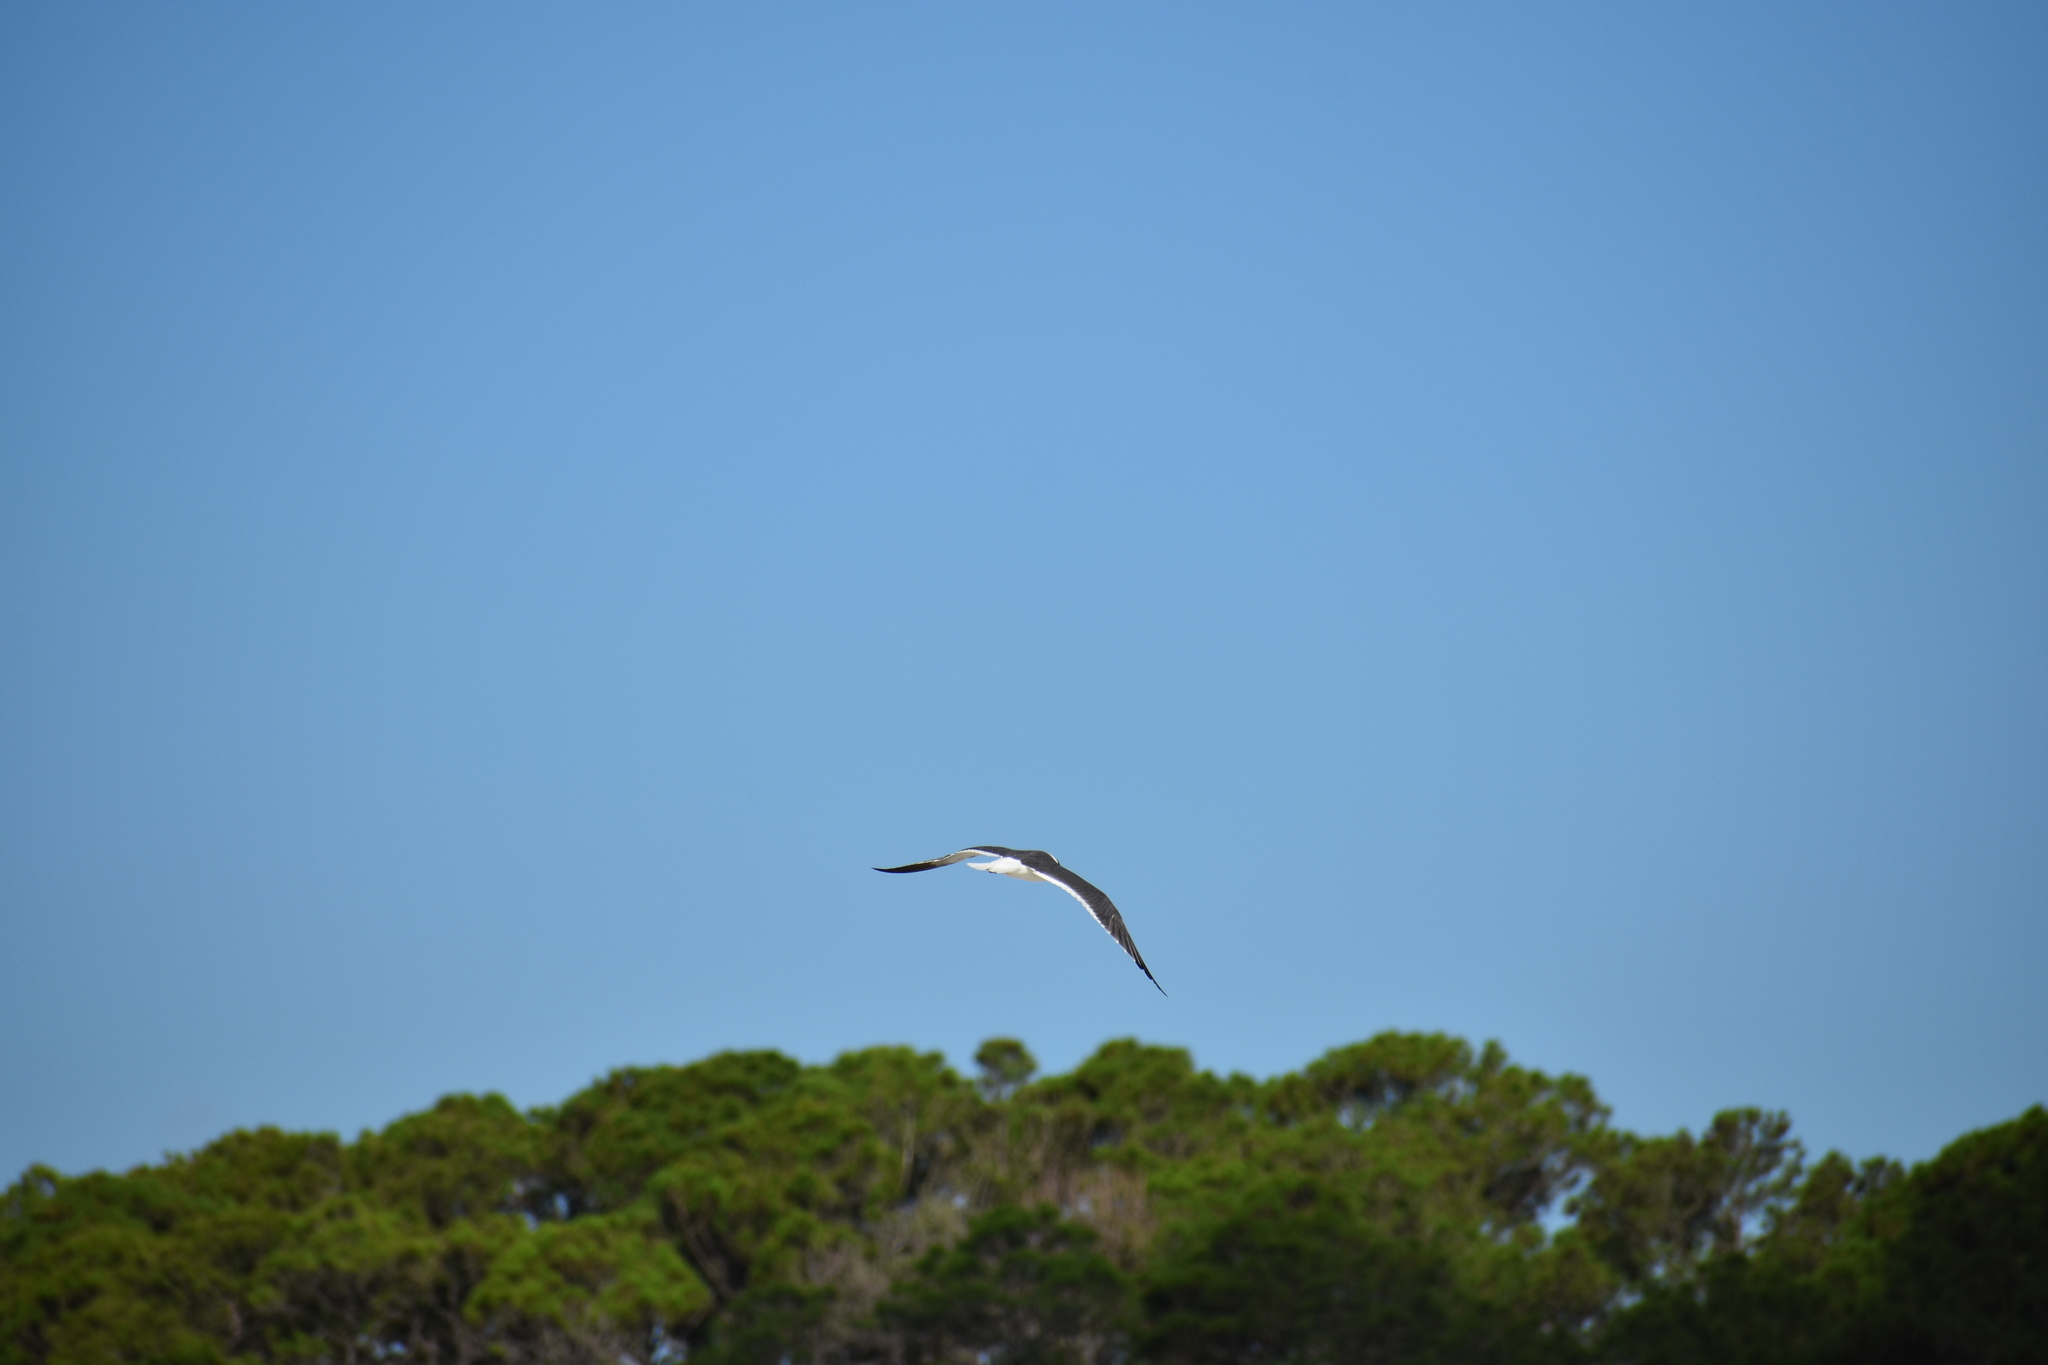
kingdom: Animalia
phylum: Chordata
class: Aves
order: Charadriiformes
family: Laridae
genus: Leucophaeus
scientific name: Leucophaeus atricilla
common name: Laughing gull
